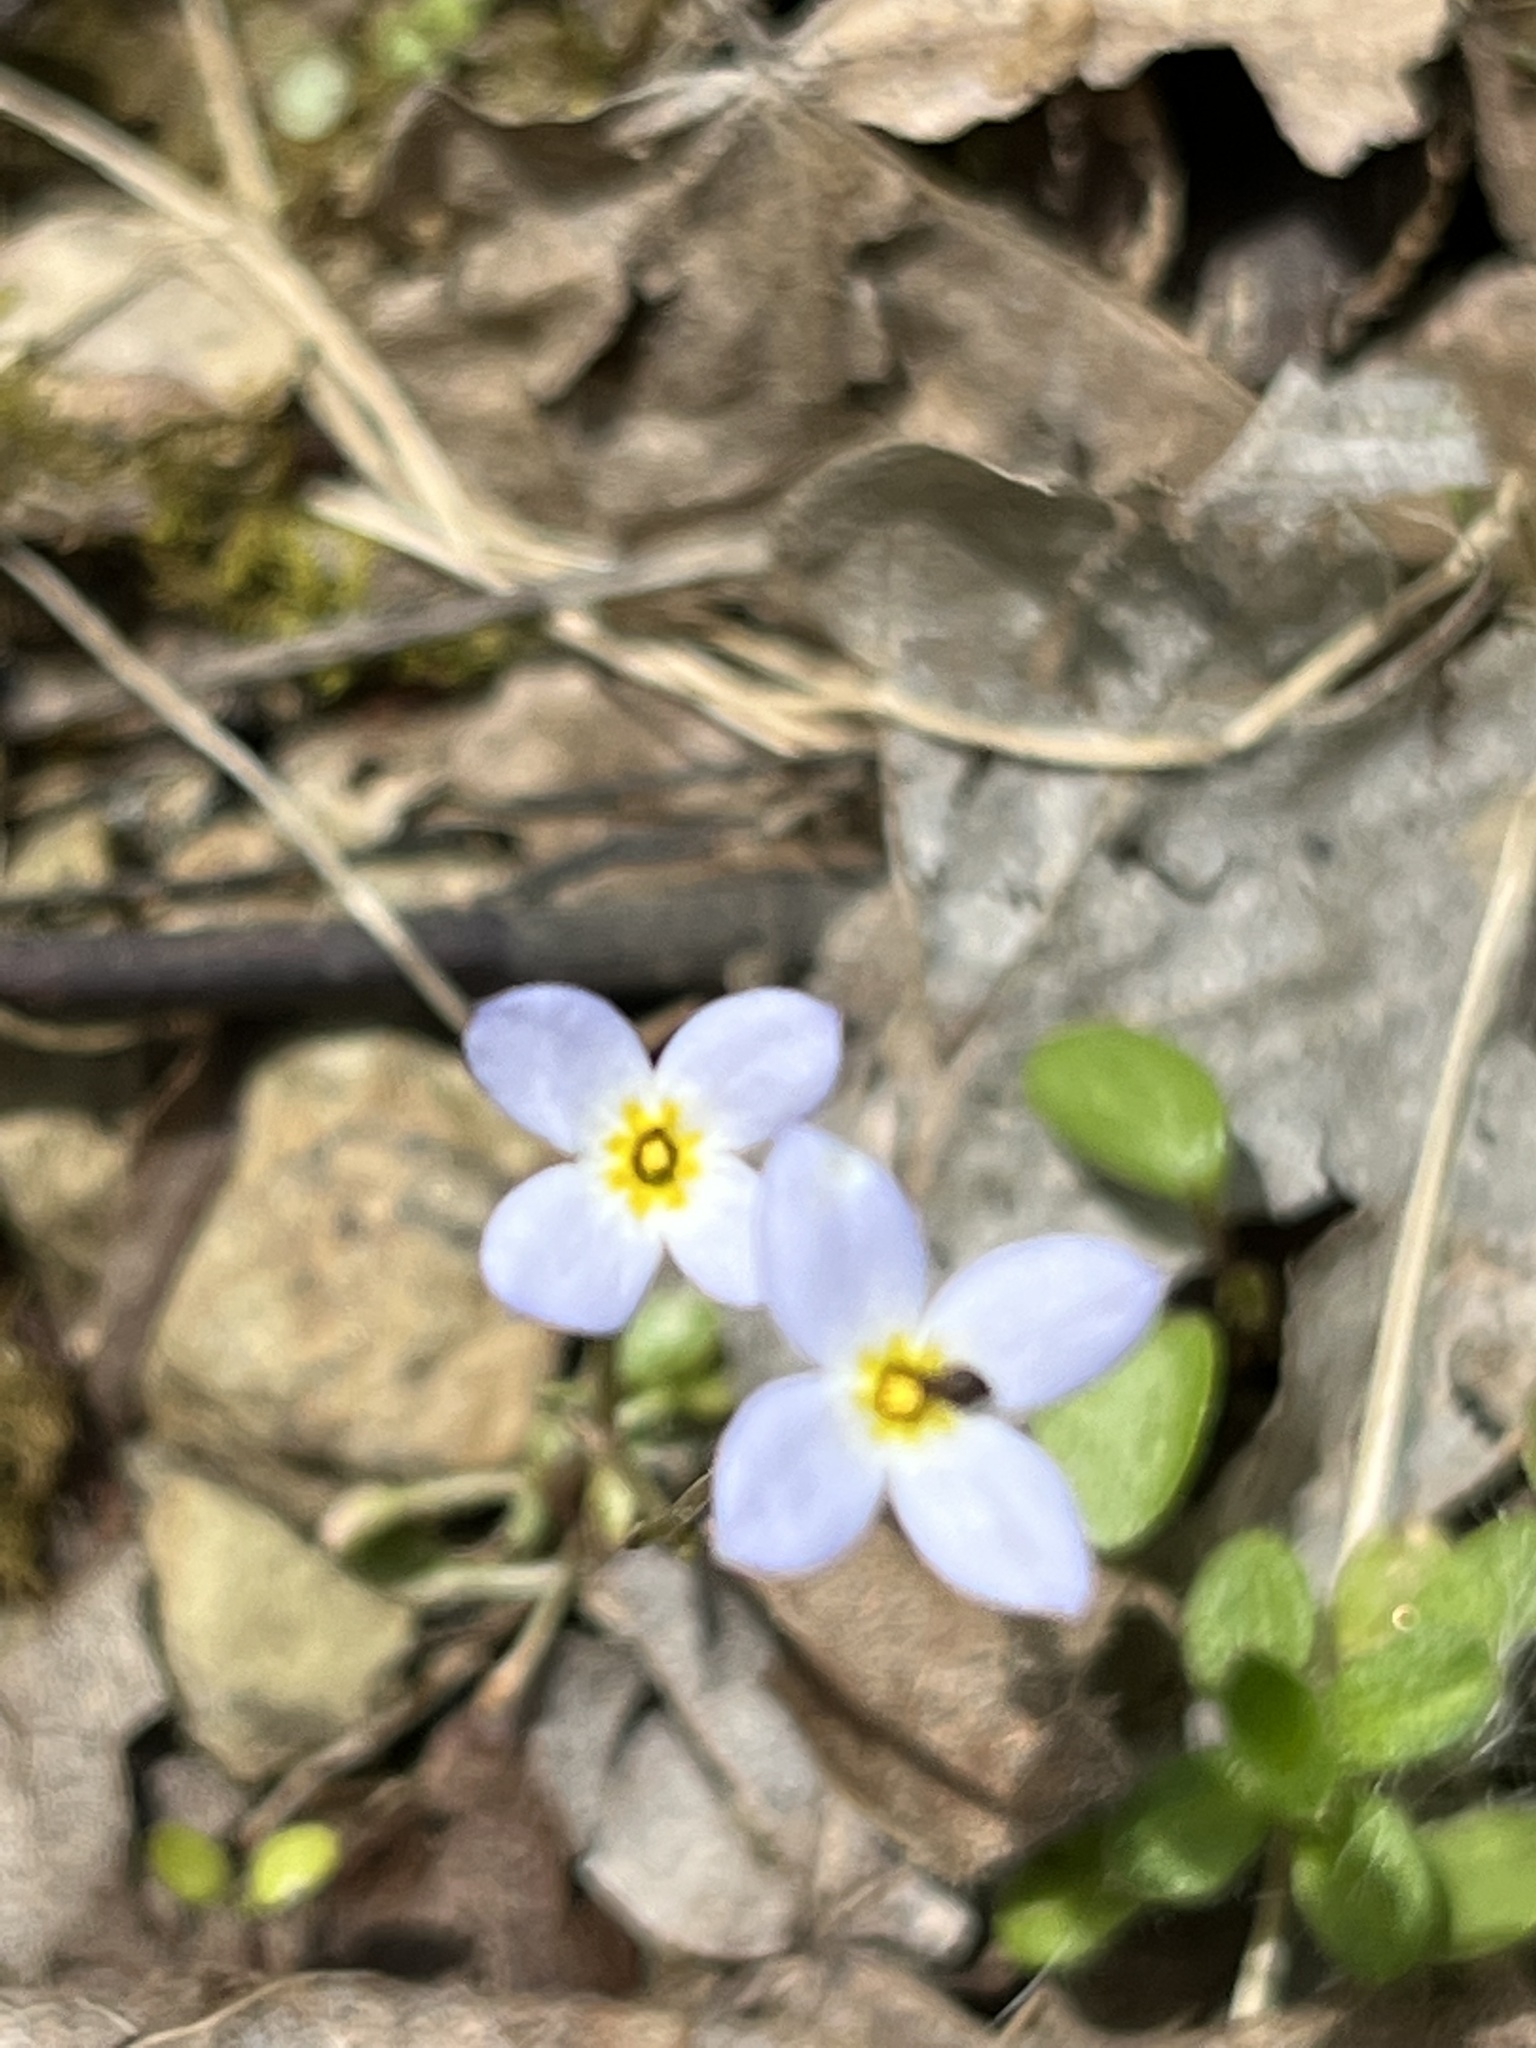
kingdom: Plantae
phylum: Tracheophyta
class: Magnoliopsida
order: Gentianales
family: Rubiaceae
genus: Houstonia
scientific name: Houstonia caerulea
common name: Bluets
